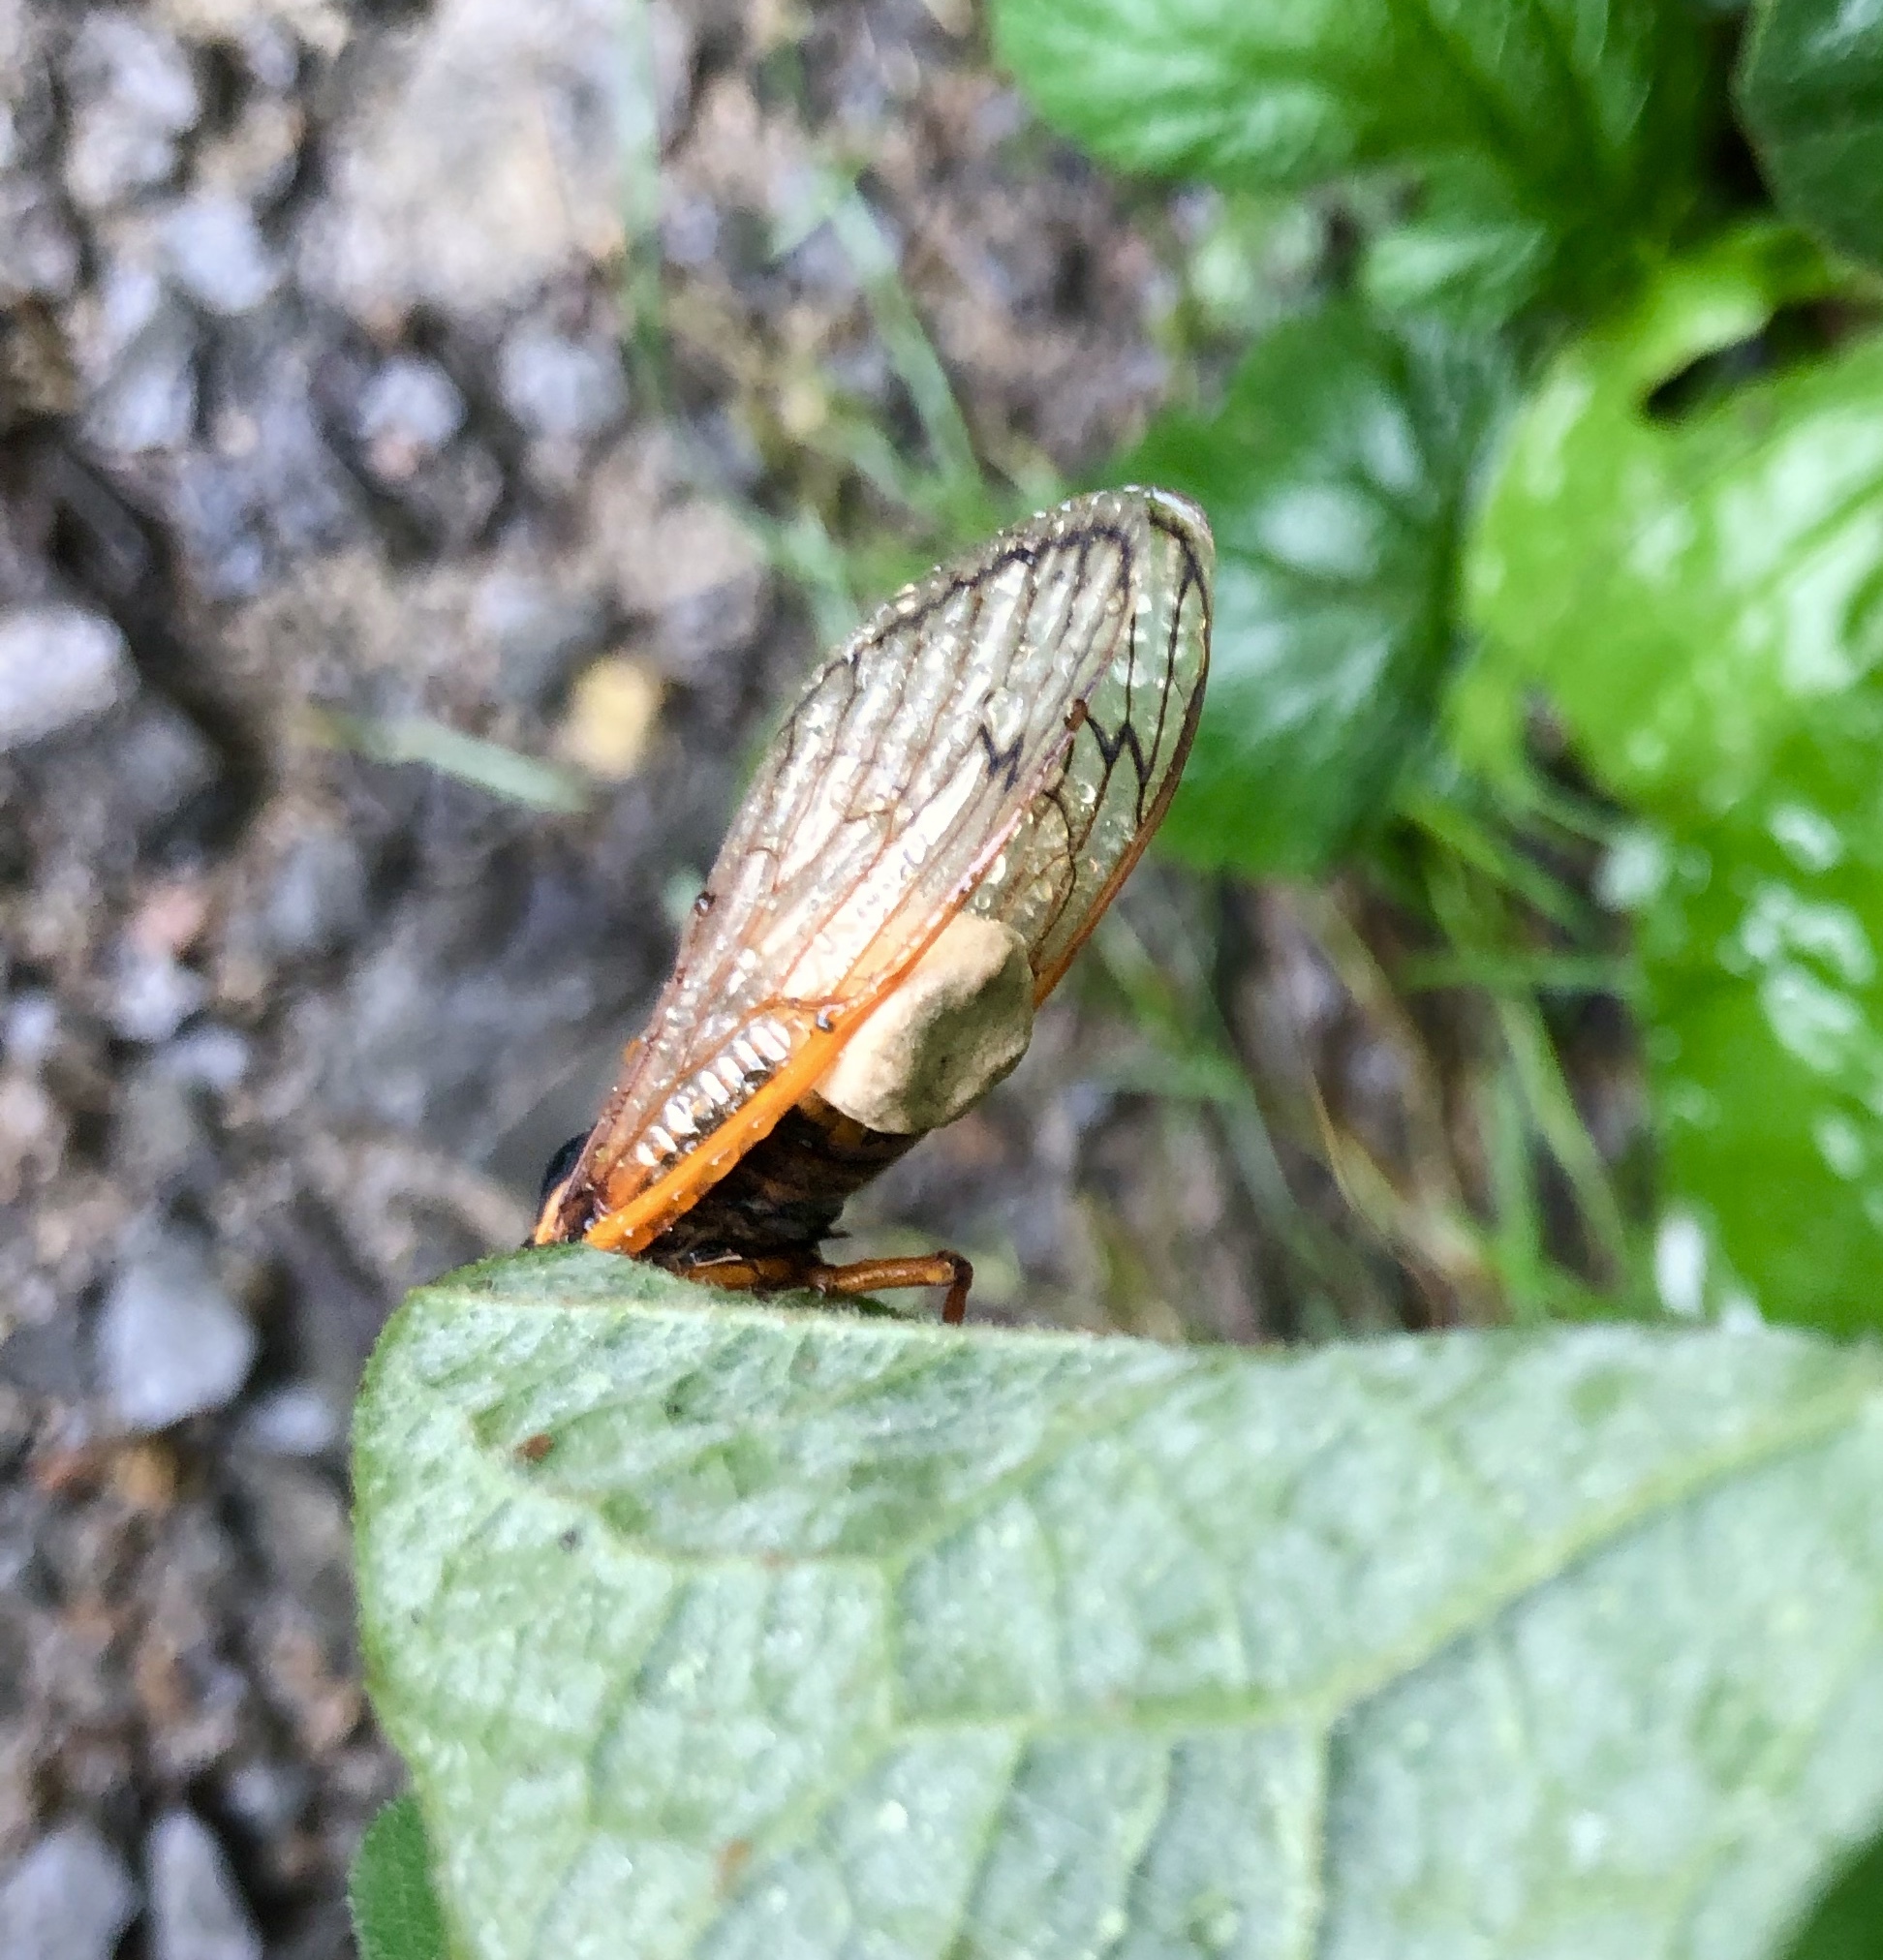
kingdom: Fungi
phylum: Entomophthoromycota
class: Entomophthoromycetes
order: Entomophthorales
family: Entomophthoraceae
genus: Massospora
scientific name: Massospora cicadina
